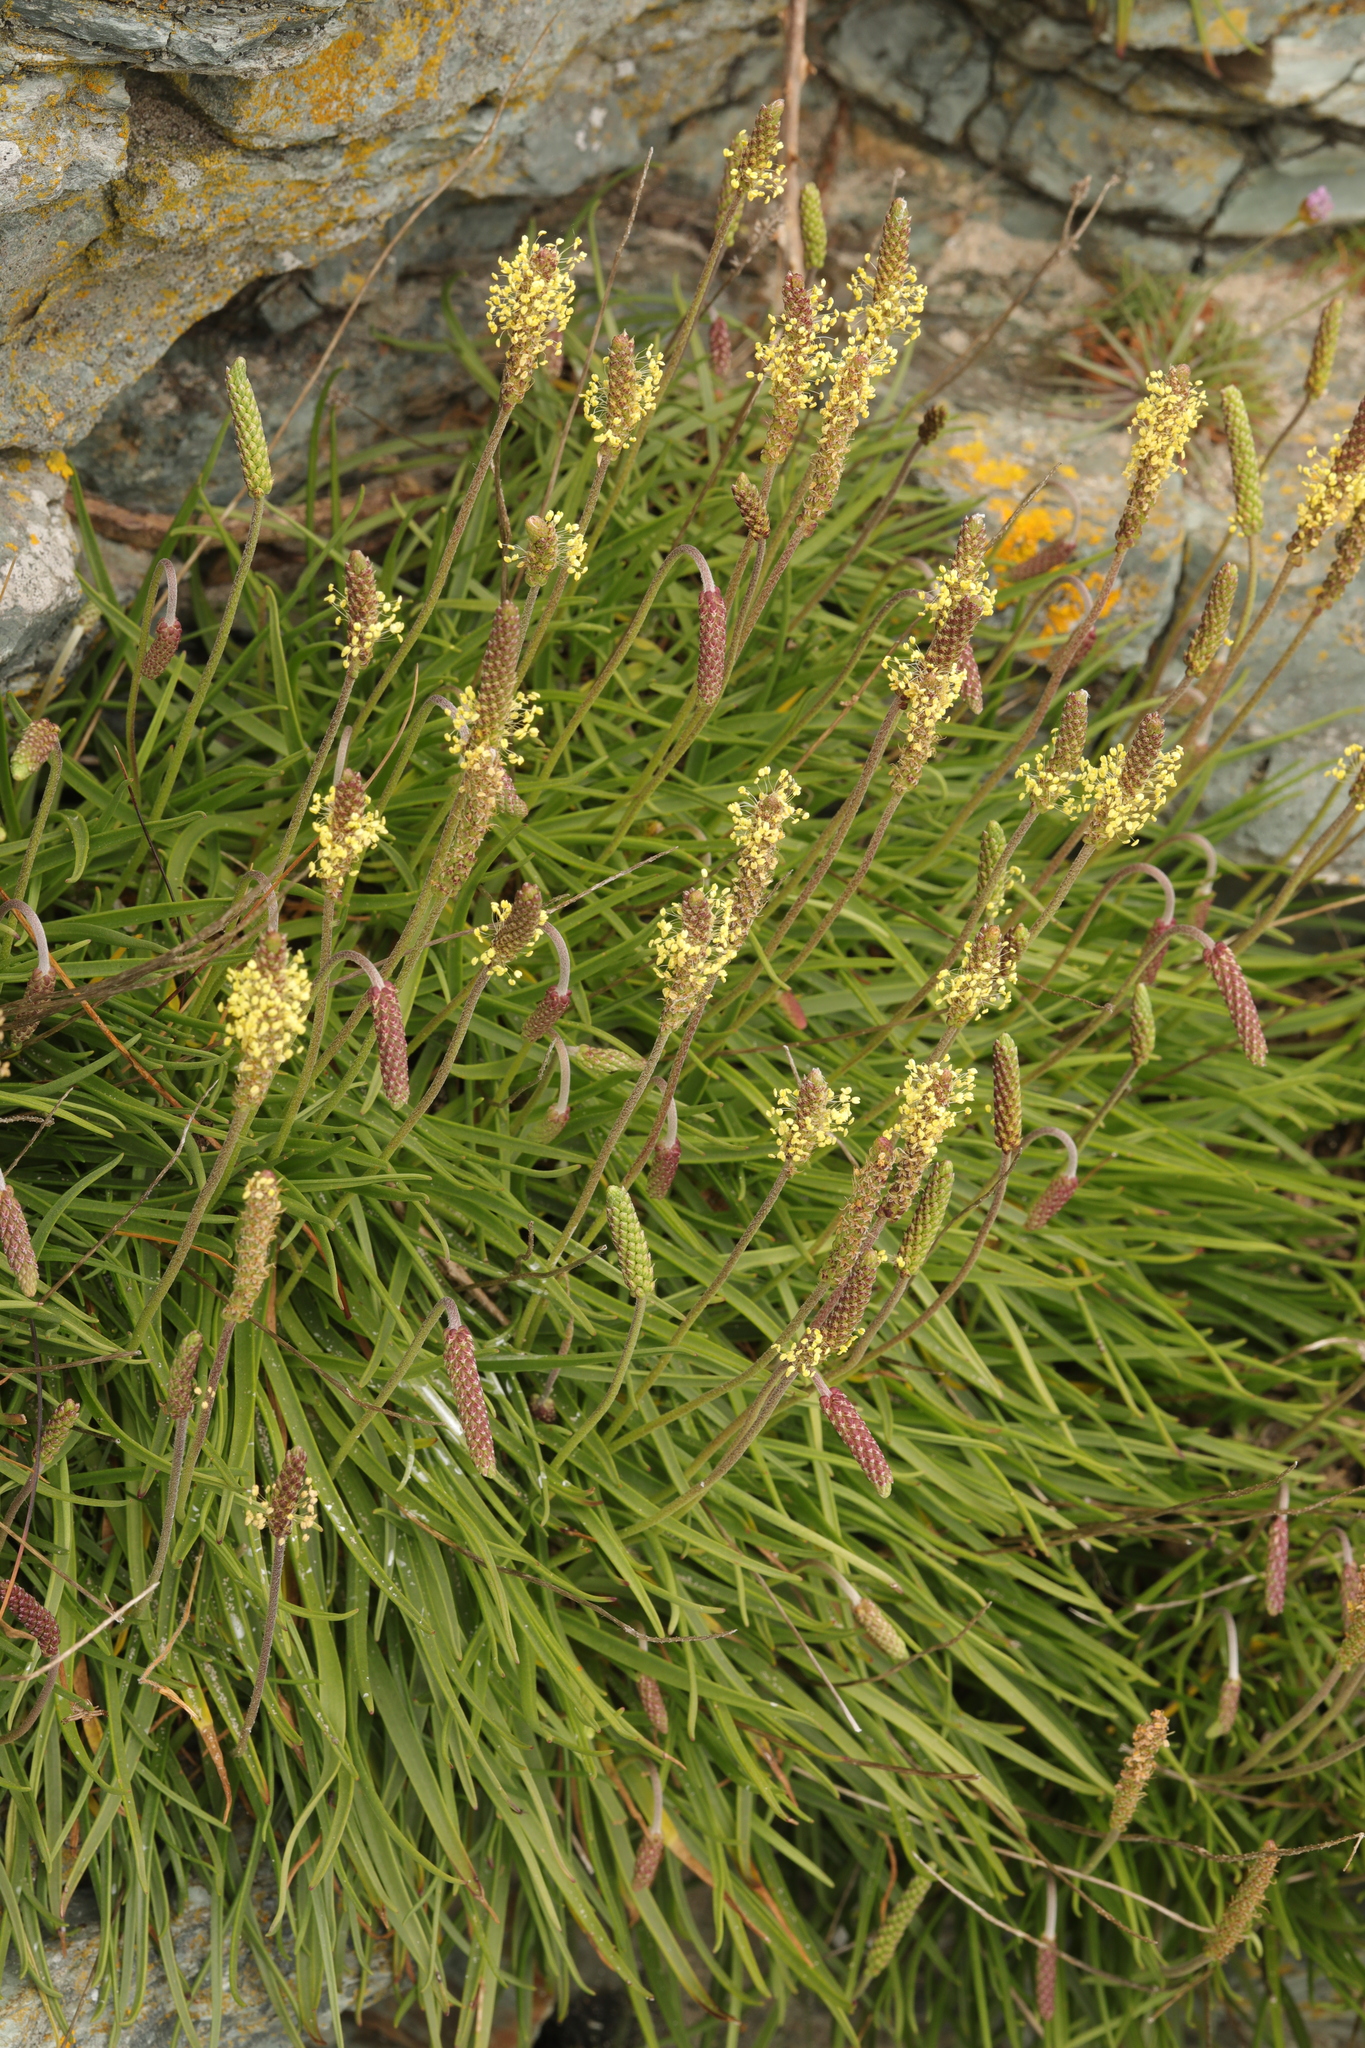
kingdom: Plantae
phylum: Tracheophyta
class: Magnoliopsida
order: Lamiales
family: Plantaginaceae
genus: Plantago
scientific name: Plantago maritima
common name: Sea plantain
